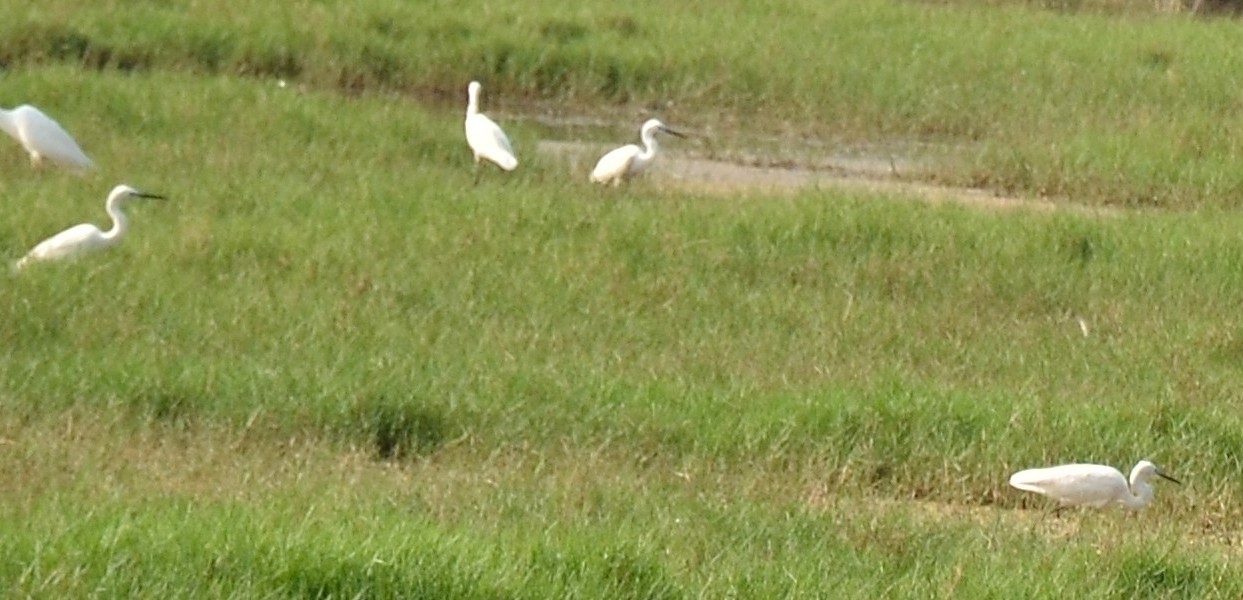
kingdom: Animalia
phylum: Chordata
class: Aves
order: Pelecaniformes
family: Ardeidae
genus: Egretta
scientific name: Egretta garzetta
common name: Little egret
